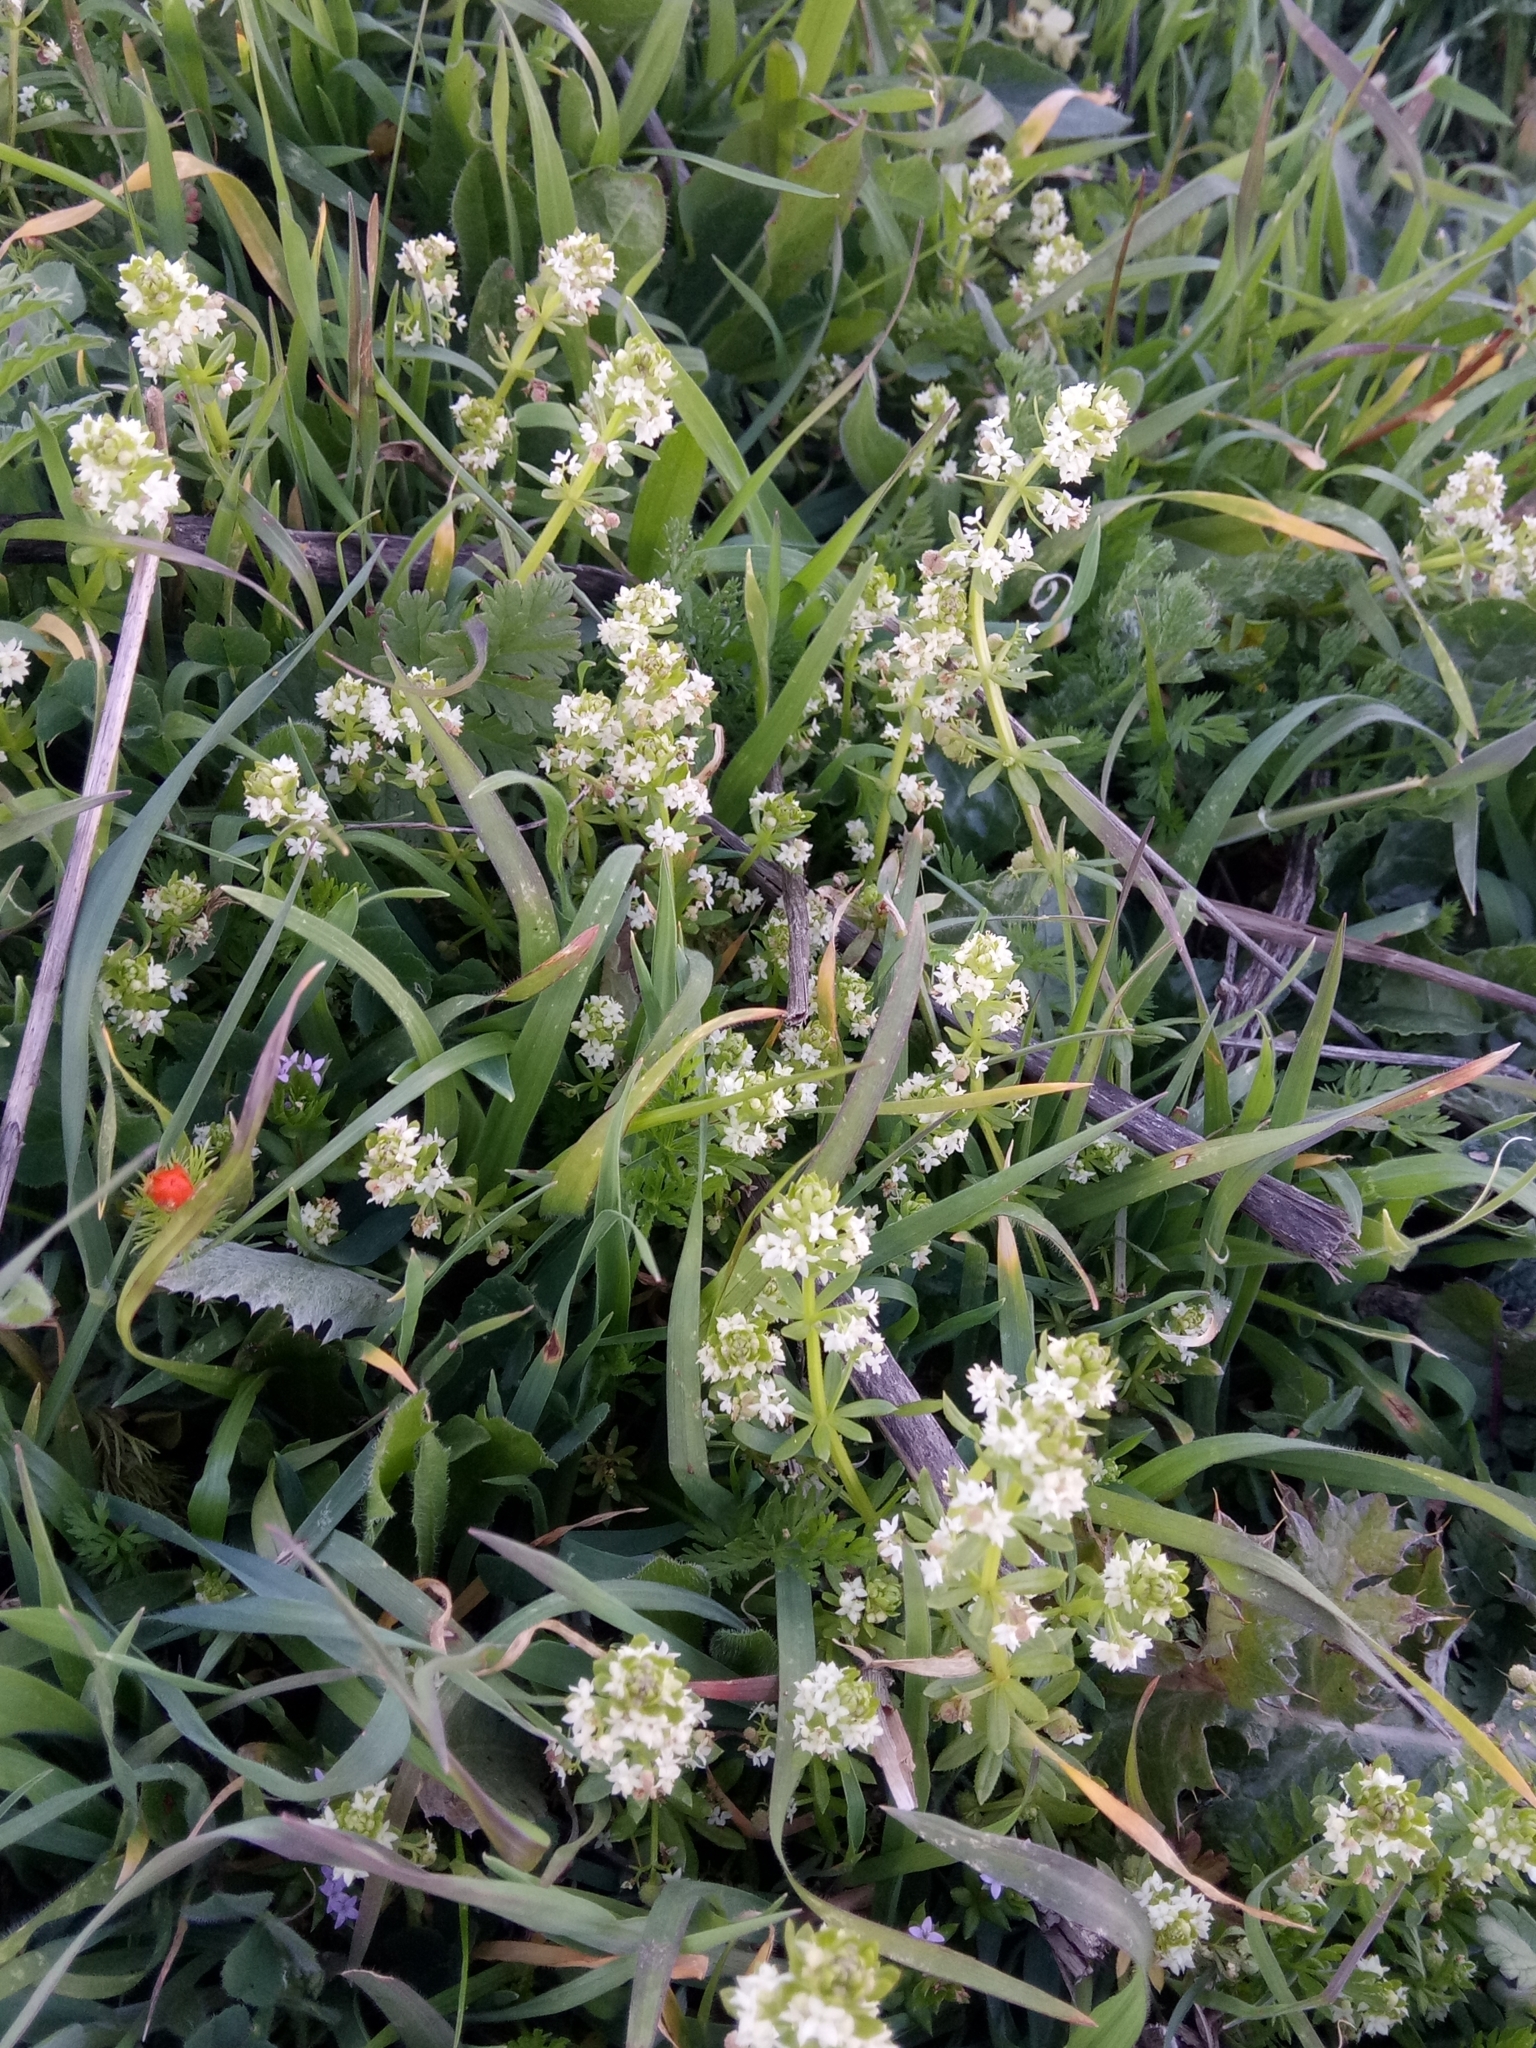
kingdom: Plantae
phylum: Tracheophyta
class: Magnoliopsida
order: Gentianales
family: Rubiaceae
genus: Galium
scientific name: Galium verrucosum
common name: Warty bedstraw
